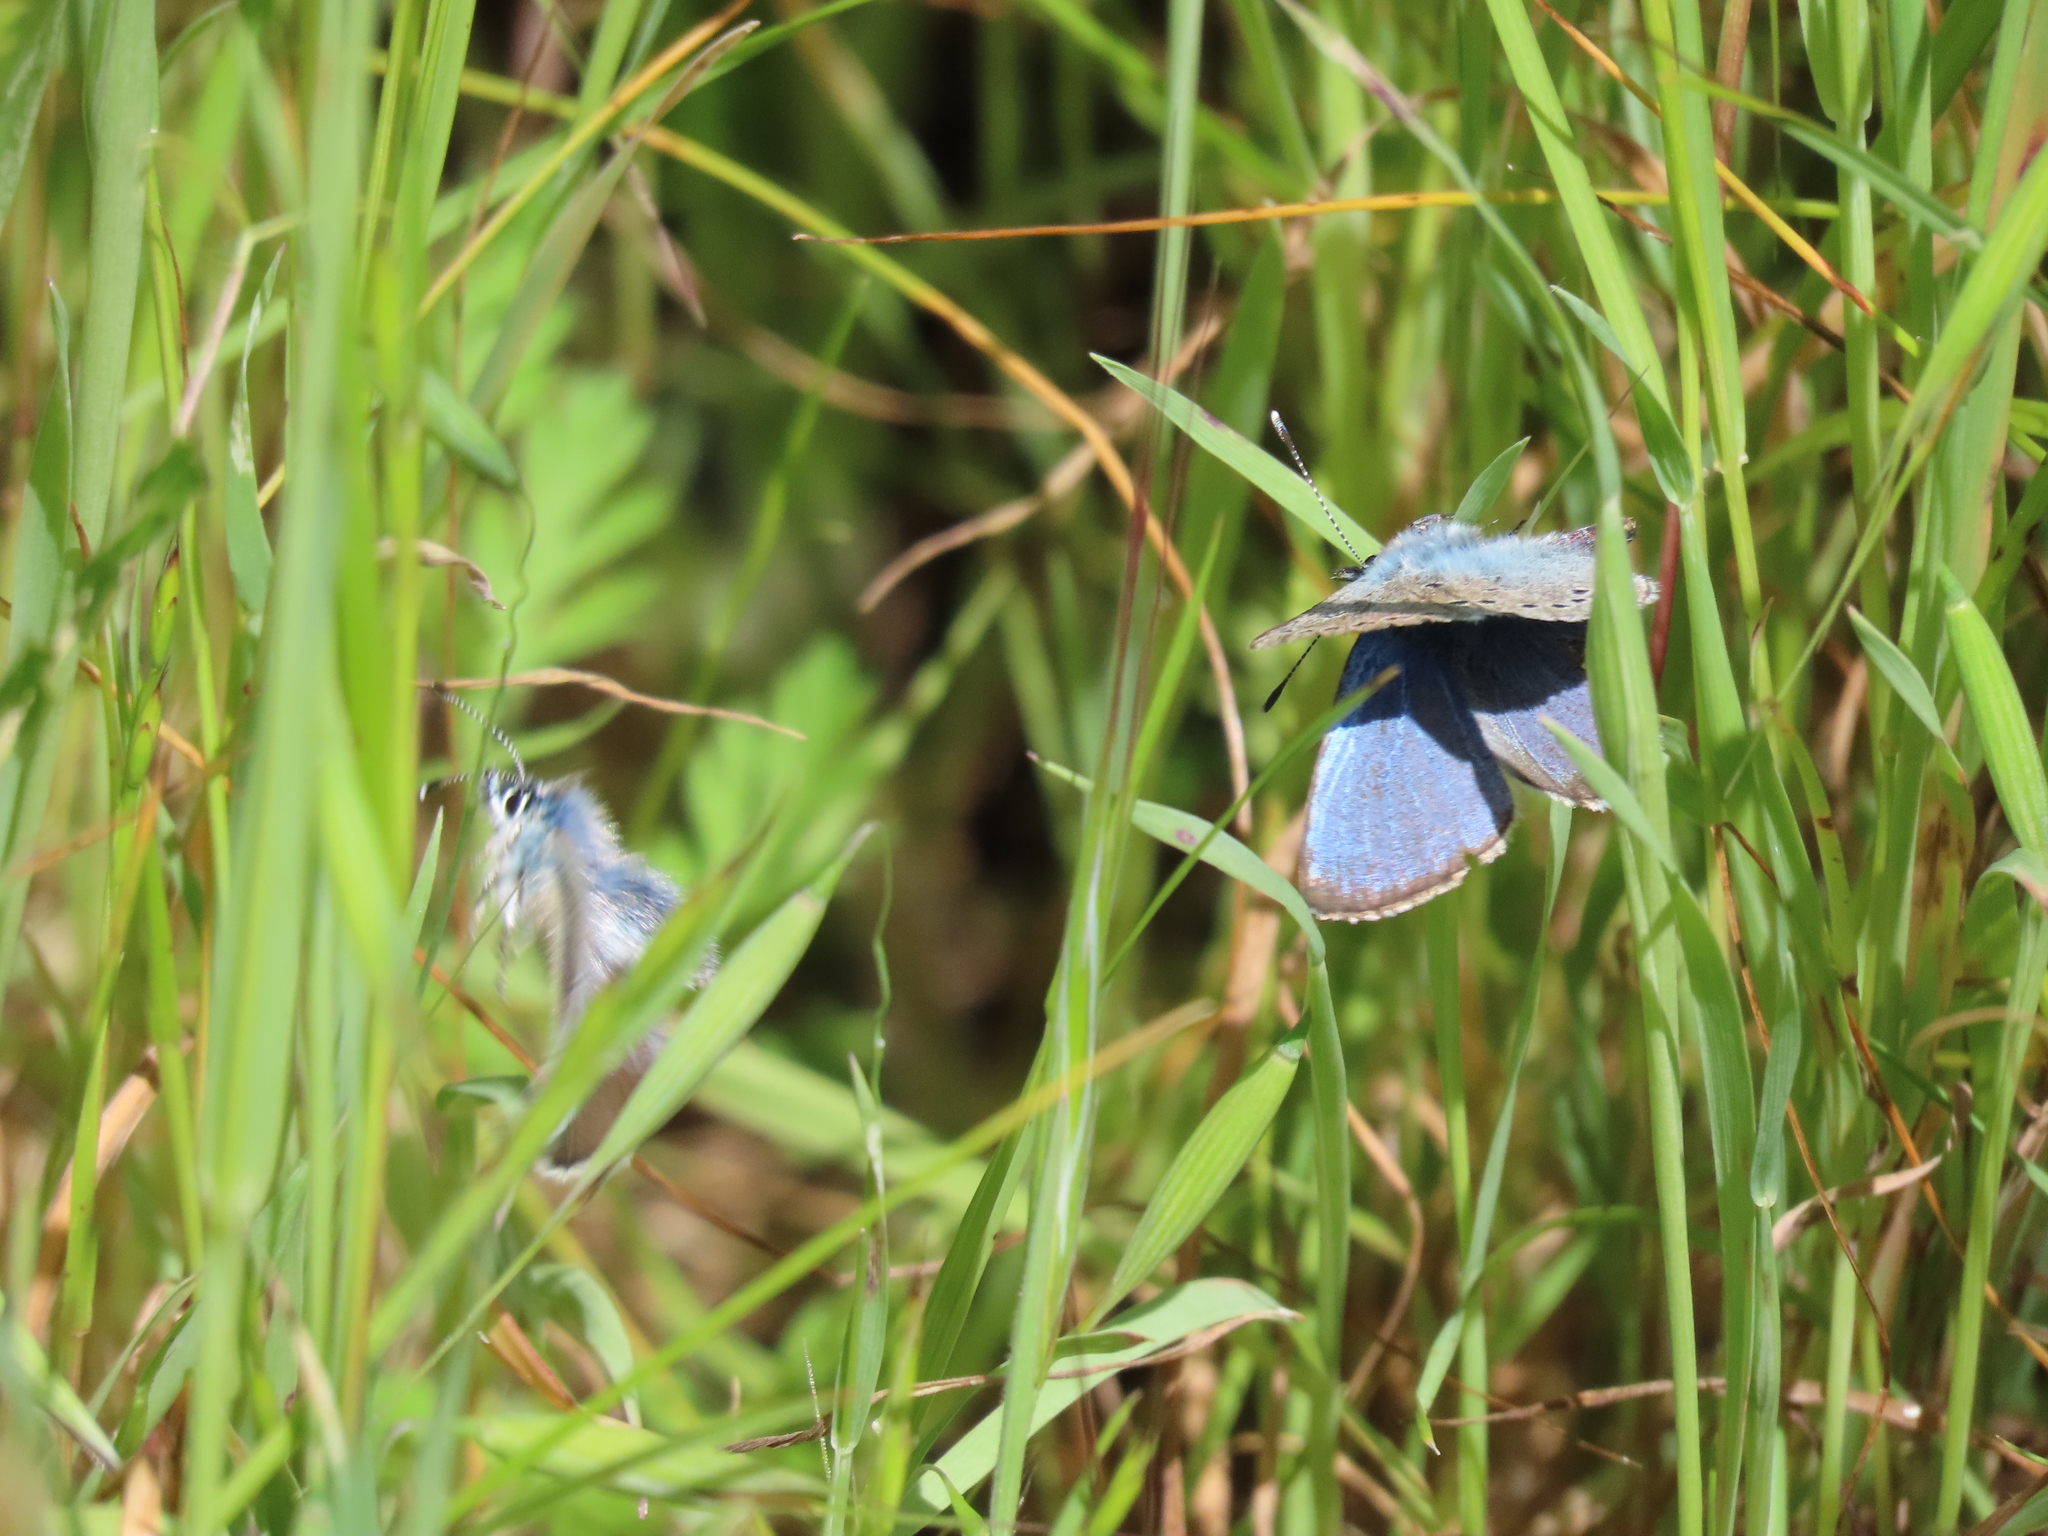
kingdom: Animalia
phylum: Arthropoda
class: Insecta
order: Lepidoptera
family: Lycaenidae
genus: Glaucopsyche
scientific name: Glaucopsyche lygdamus
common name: Silvery blue
